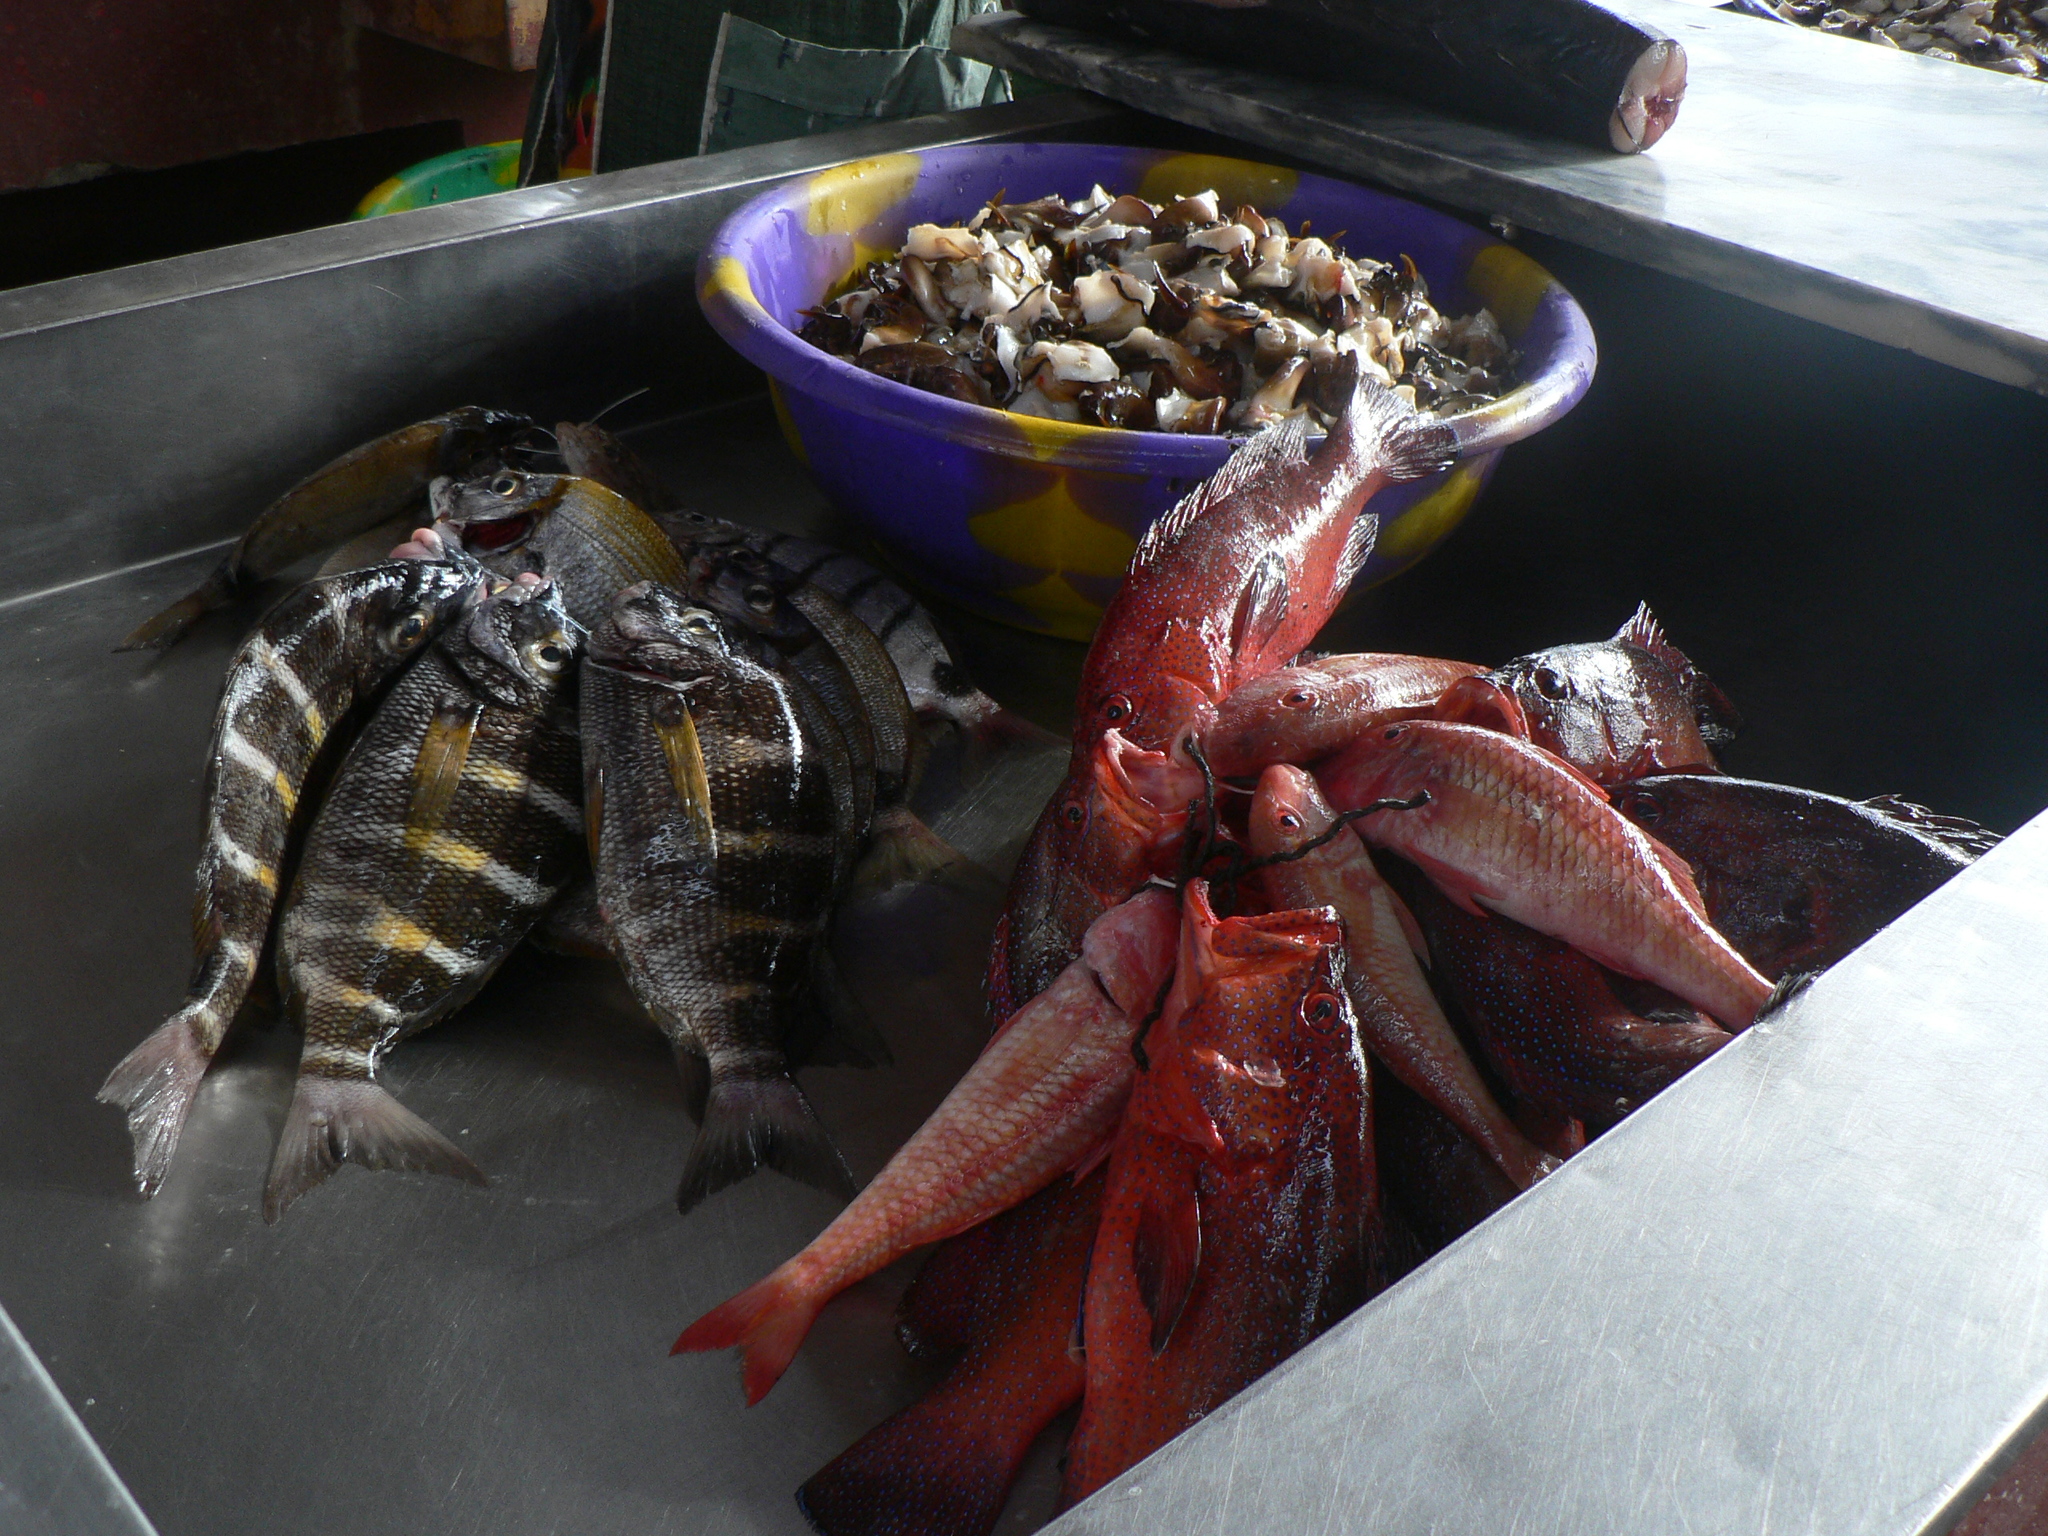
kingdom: Animalia
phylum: Chordata
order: Perciformes
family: Sparidae
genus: Diplodus
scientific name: Diplodus fasciatus
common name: Banded seabream
